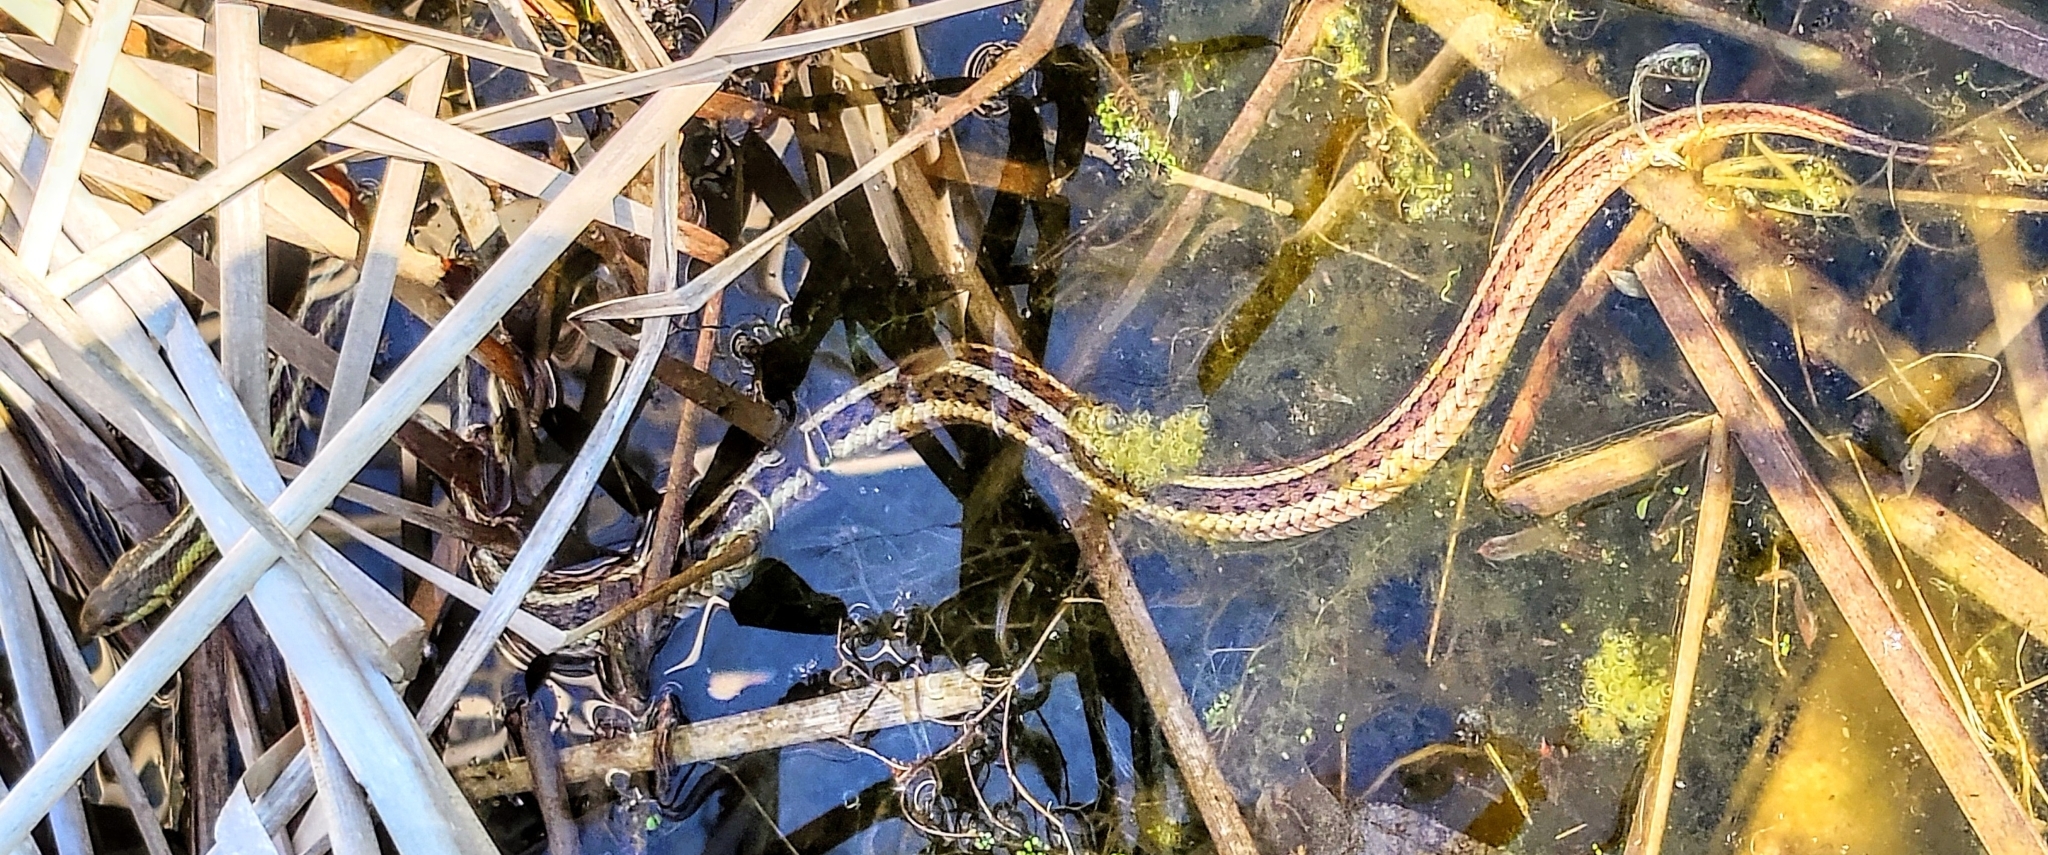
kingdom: Animalia
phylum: Chordata
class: Squamata
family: Colubridae
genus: Thamnophis
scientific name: Thamnophis sirtalis
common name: Common garter snake
